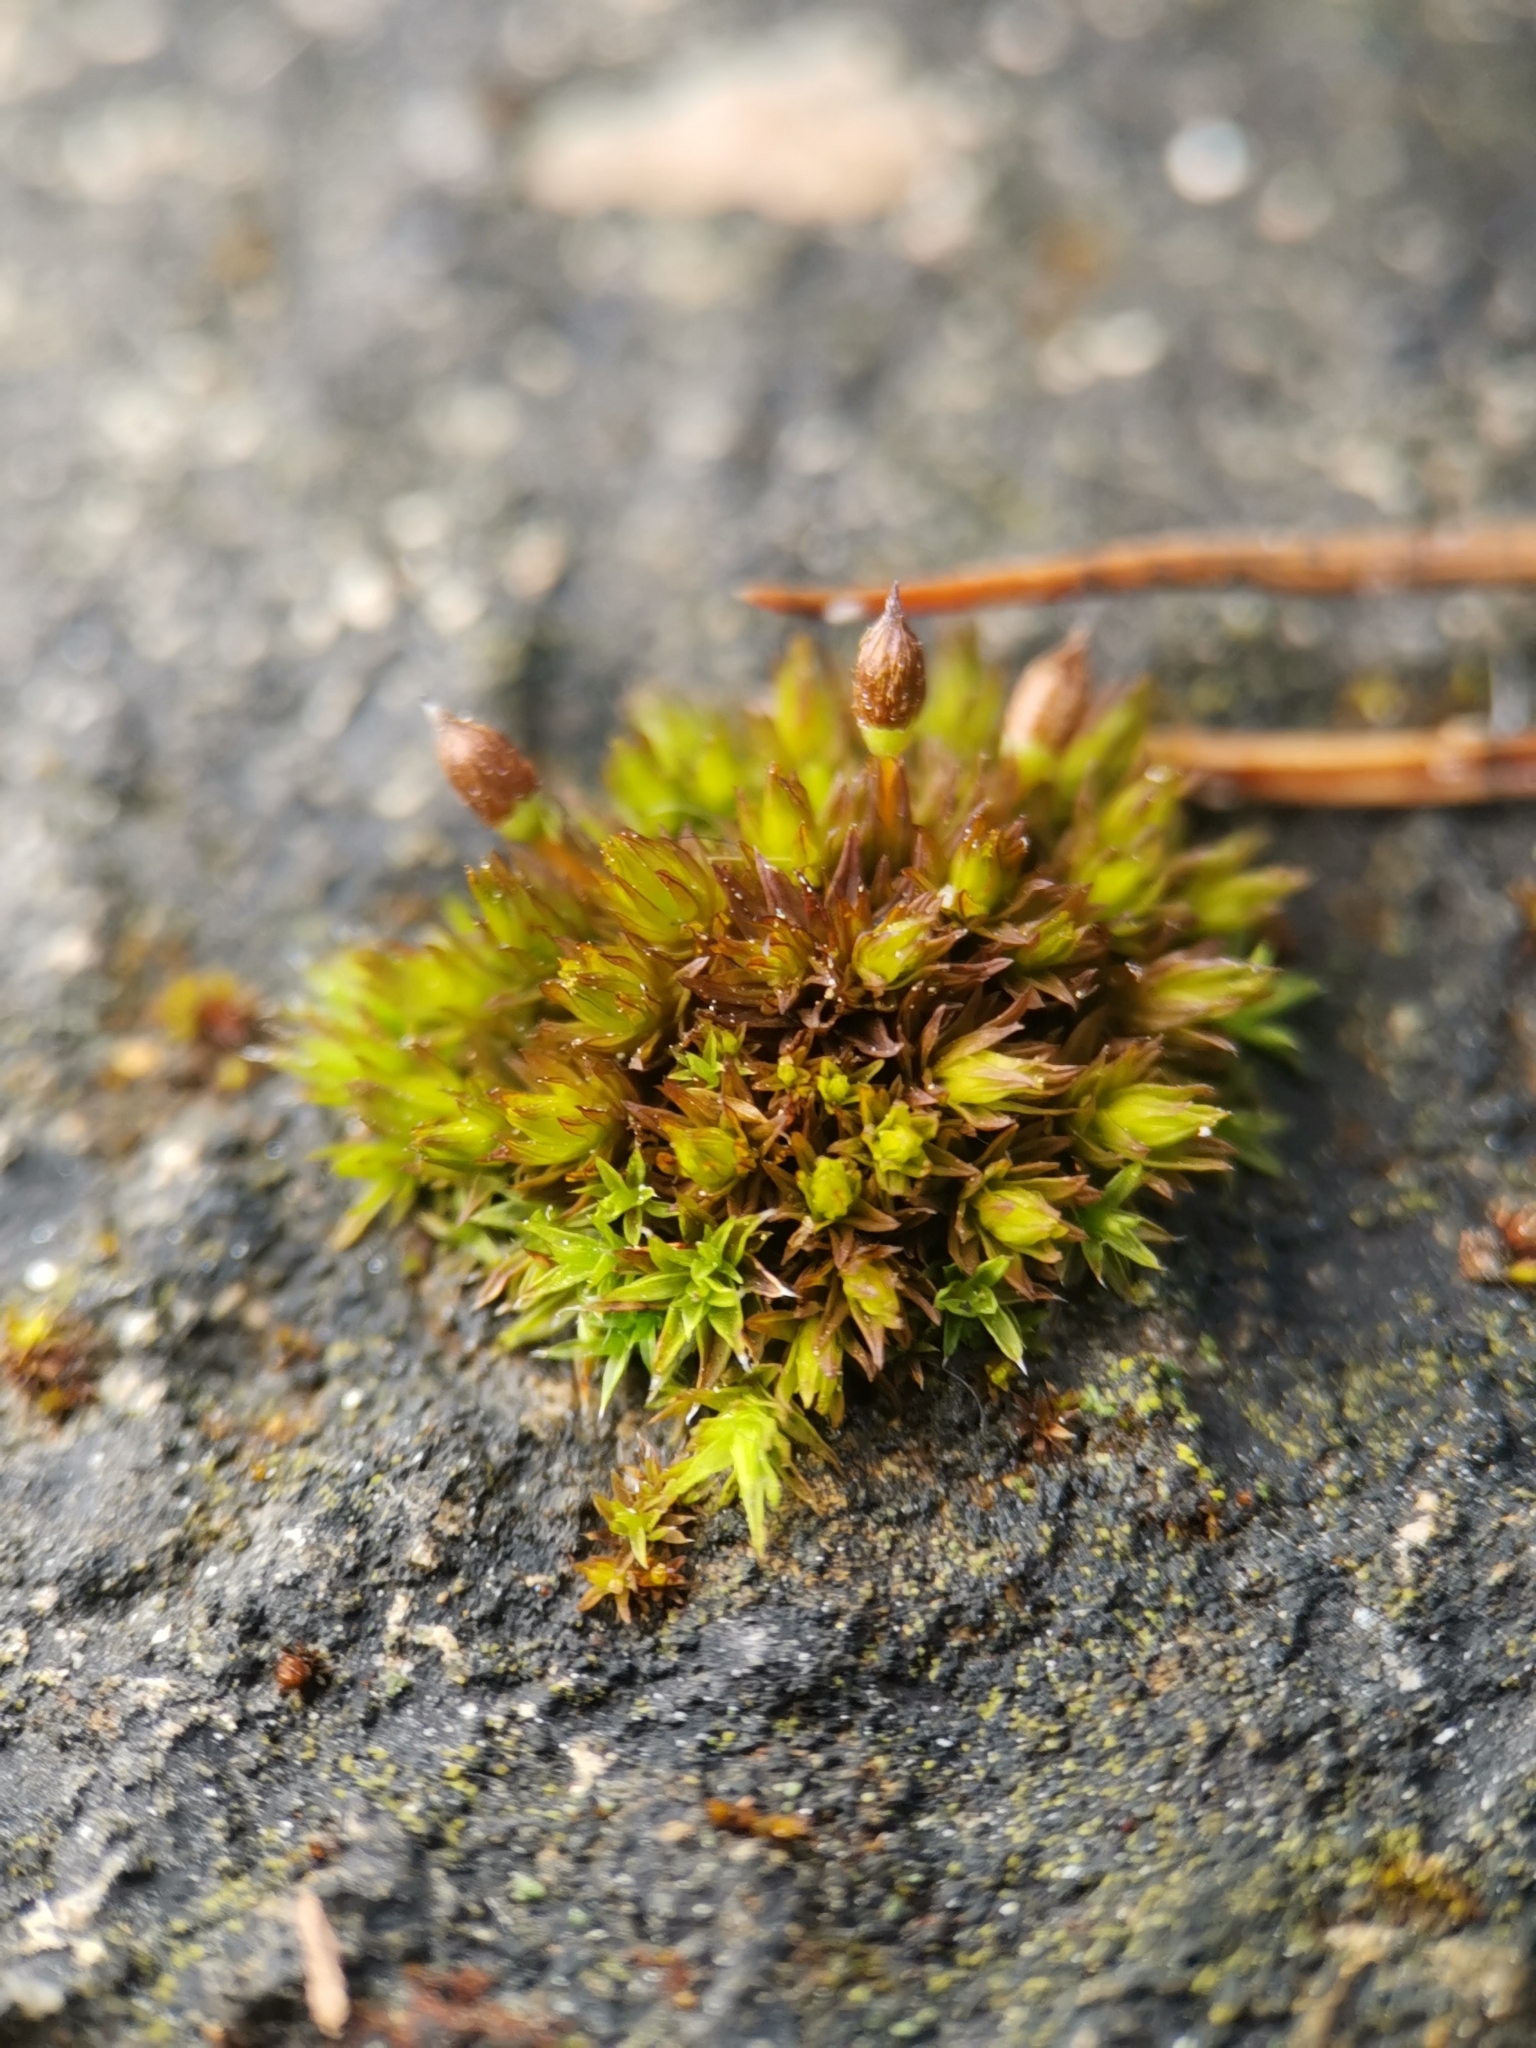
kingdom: Plantae
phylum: Bryophyta
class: Bryopsida
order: Orthotrichales
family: Orthotrichaceae
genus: Orthotrichum
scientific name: Orthotrichum anomalum
